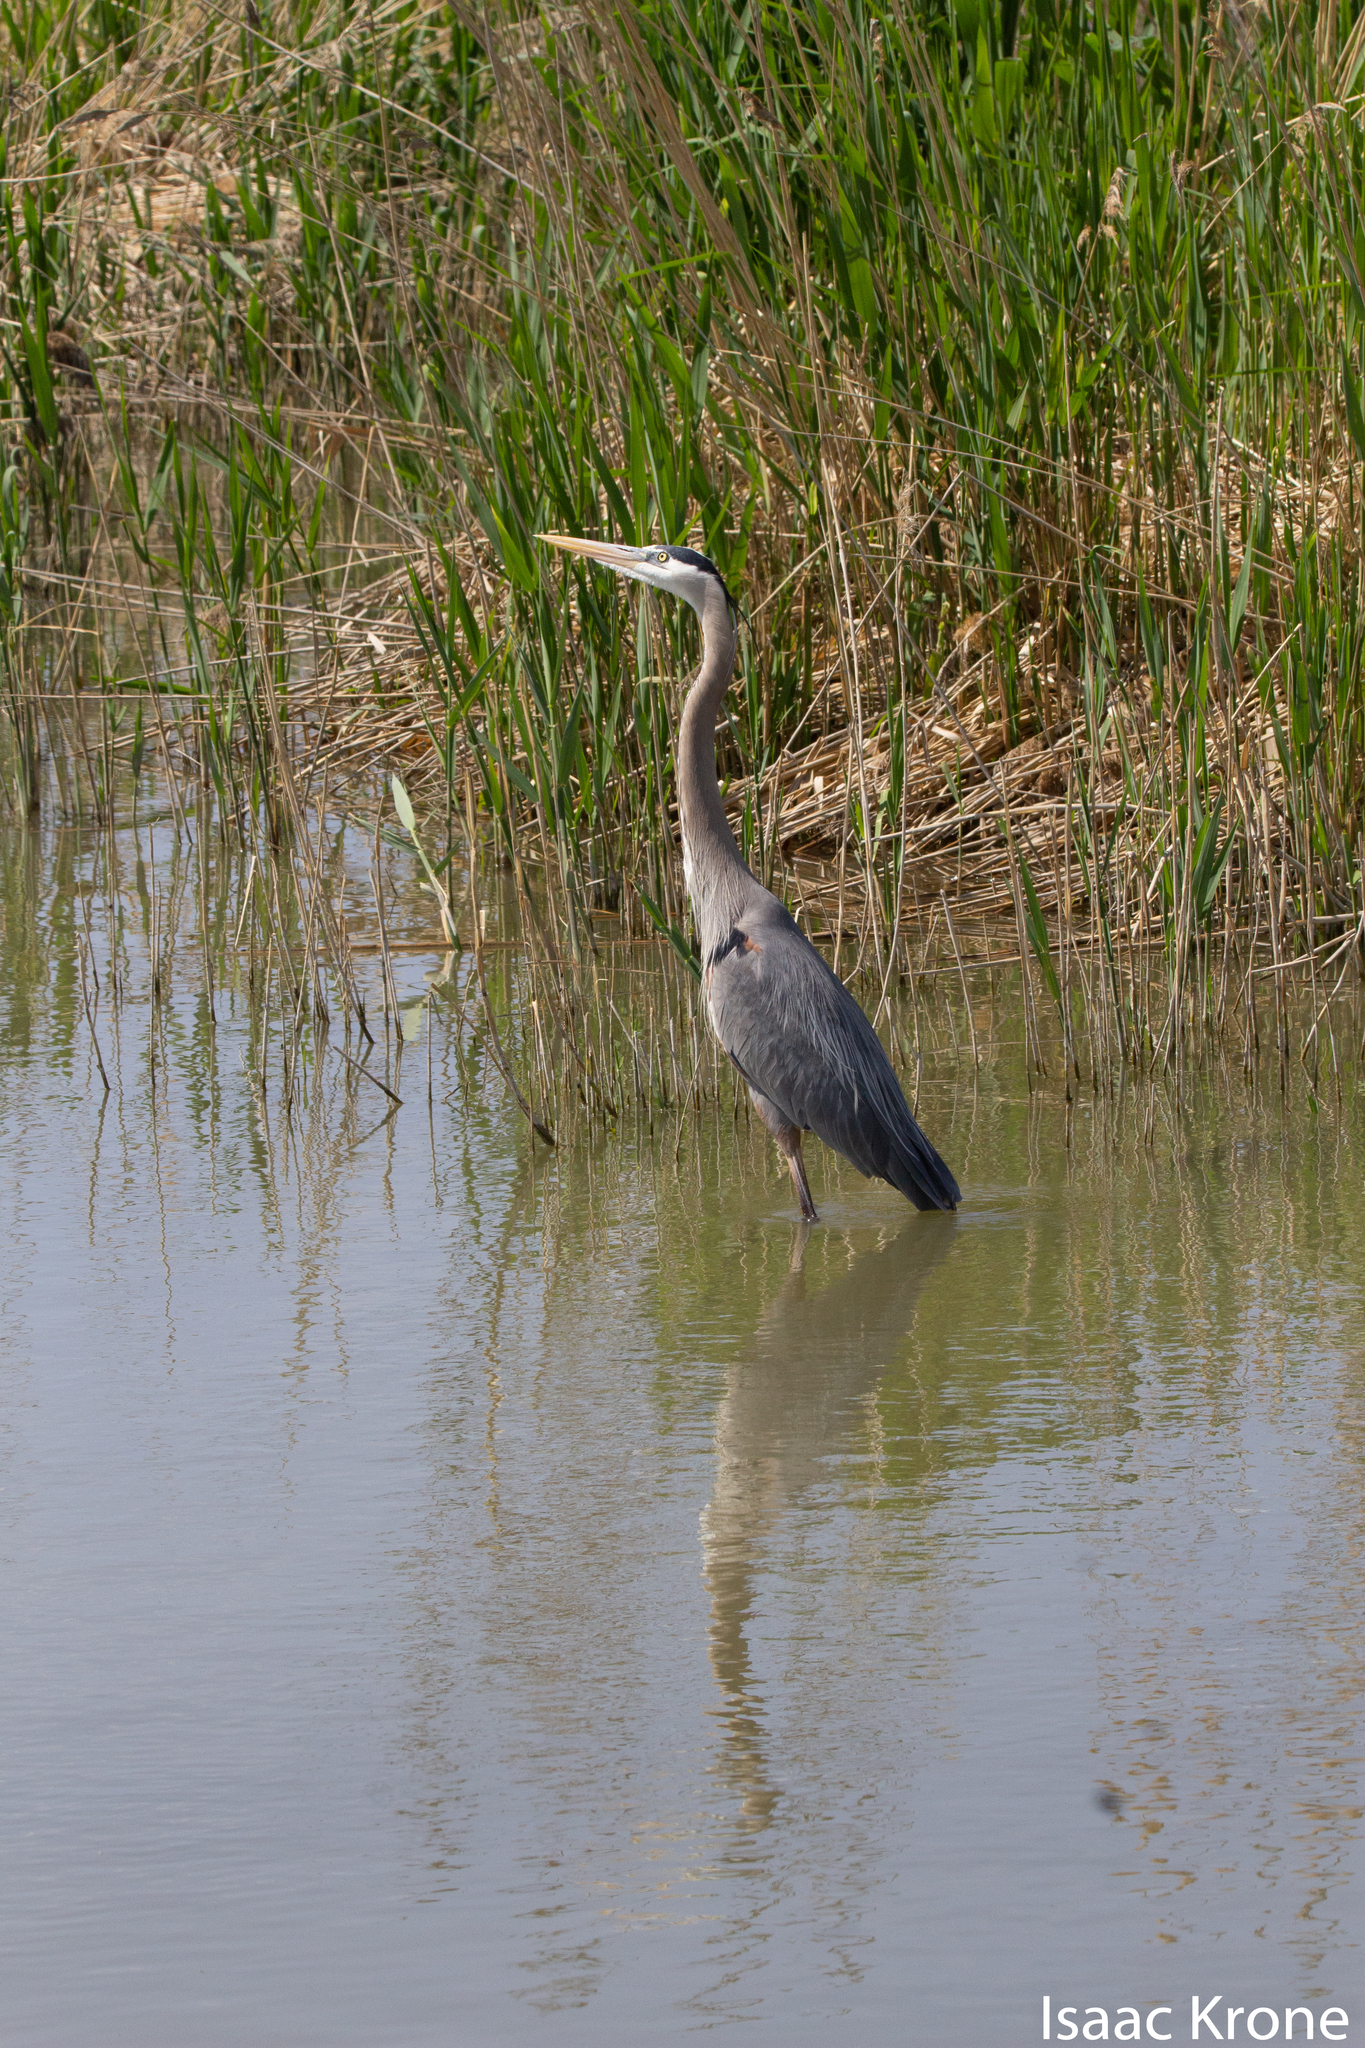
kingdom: Animalia
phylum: Chordata
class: Aves
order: Pelecaniformes
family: Ardeidae
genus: Ardea
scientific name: Ardea herodias
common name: Great blue heron
